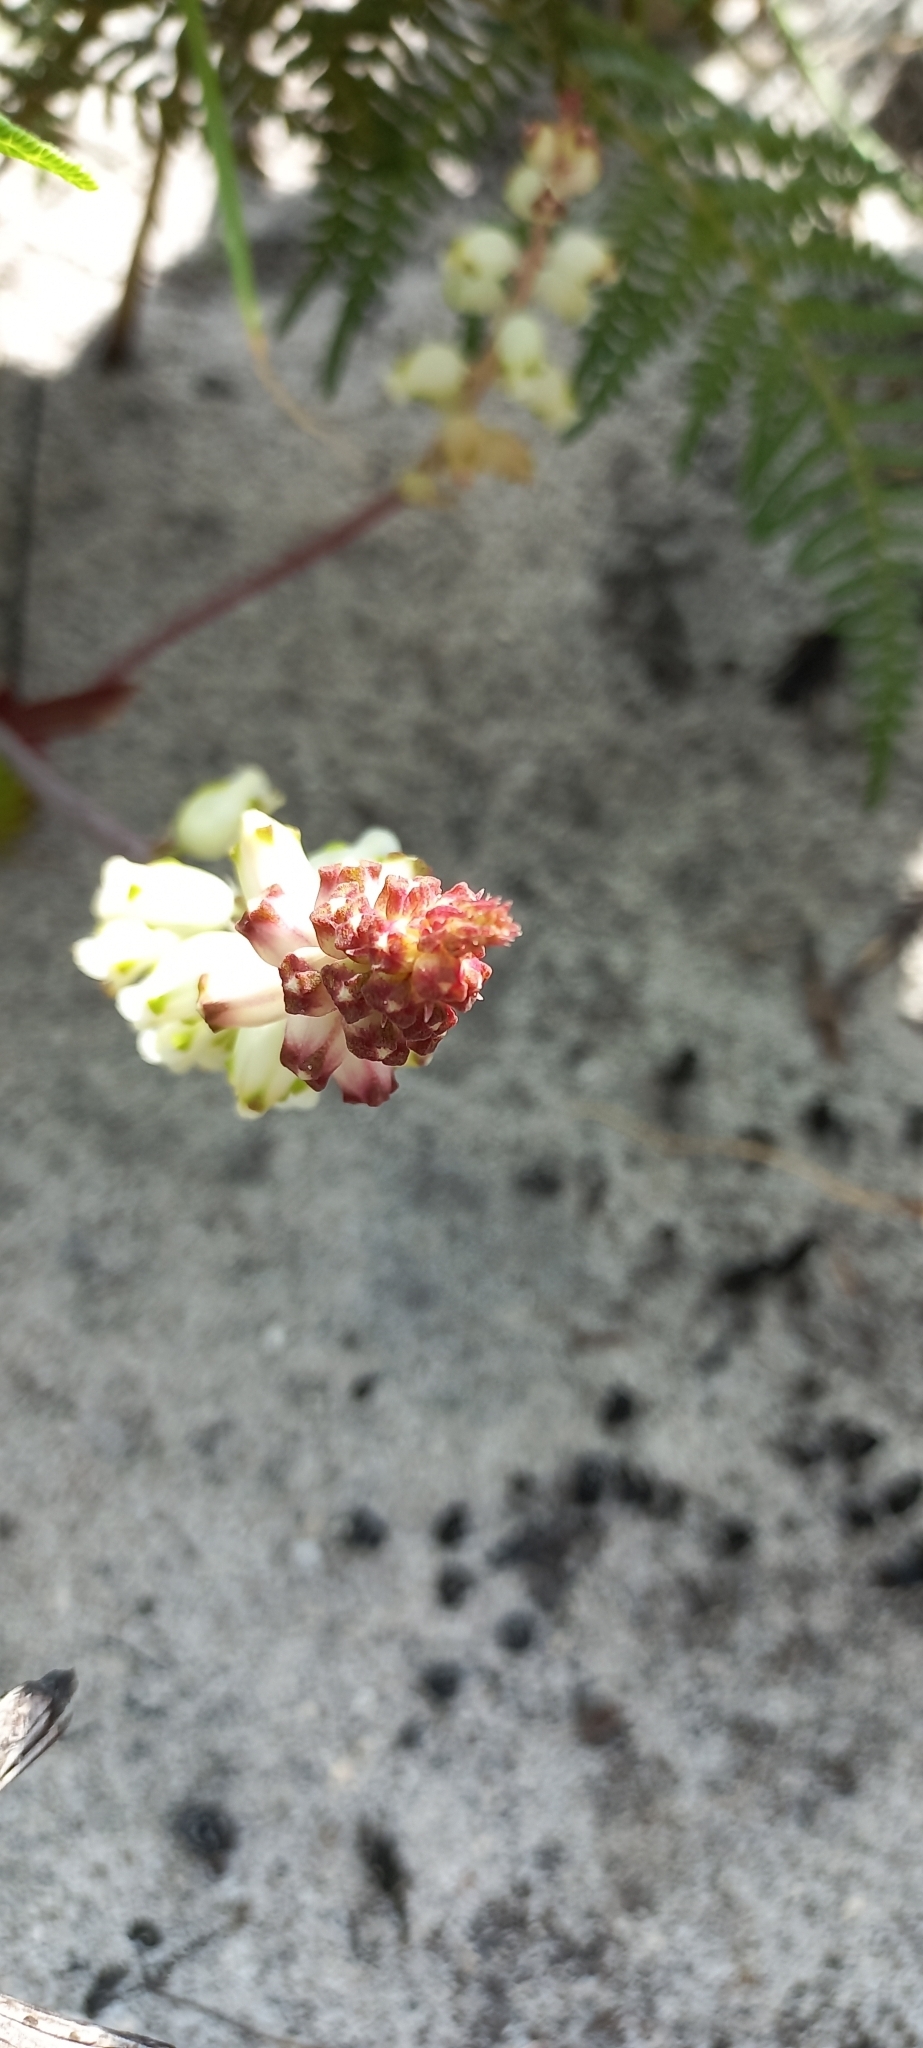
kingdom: Plantae
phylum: Tracheophyta
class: Liliopsida
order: Asparagales
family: Asparagaceae
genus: Lachenalia
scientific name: Lachenalia peersii
